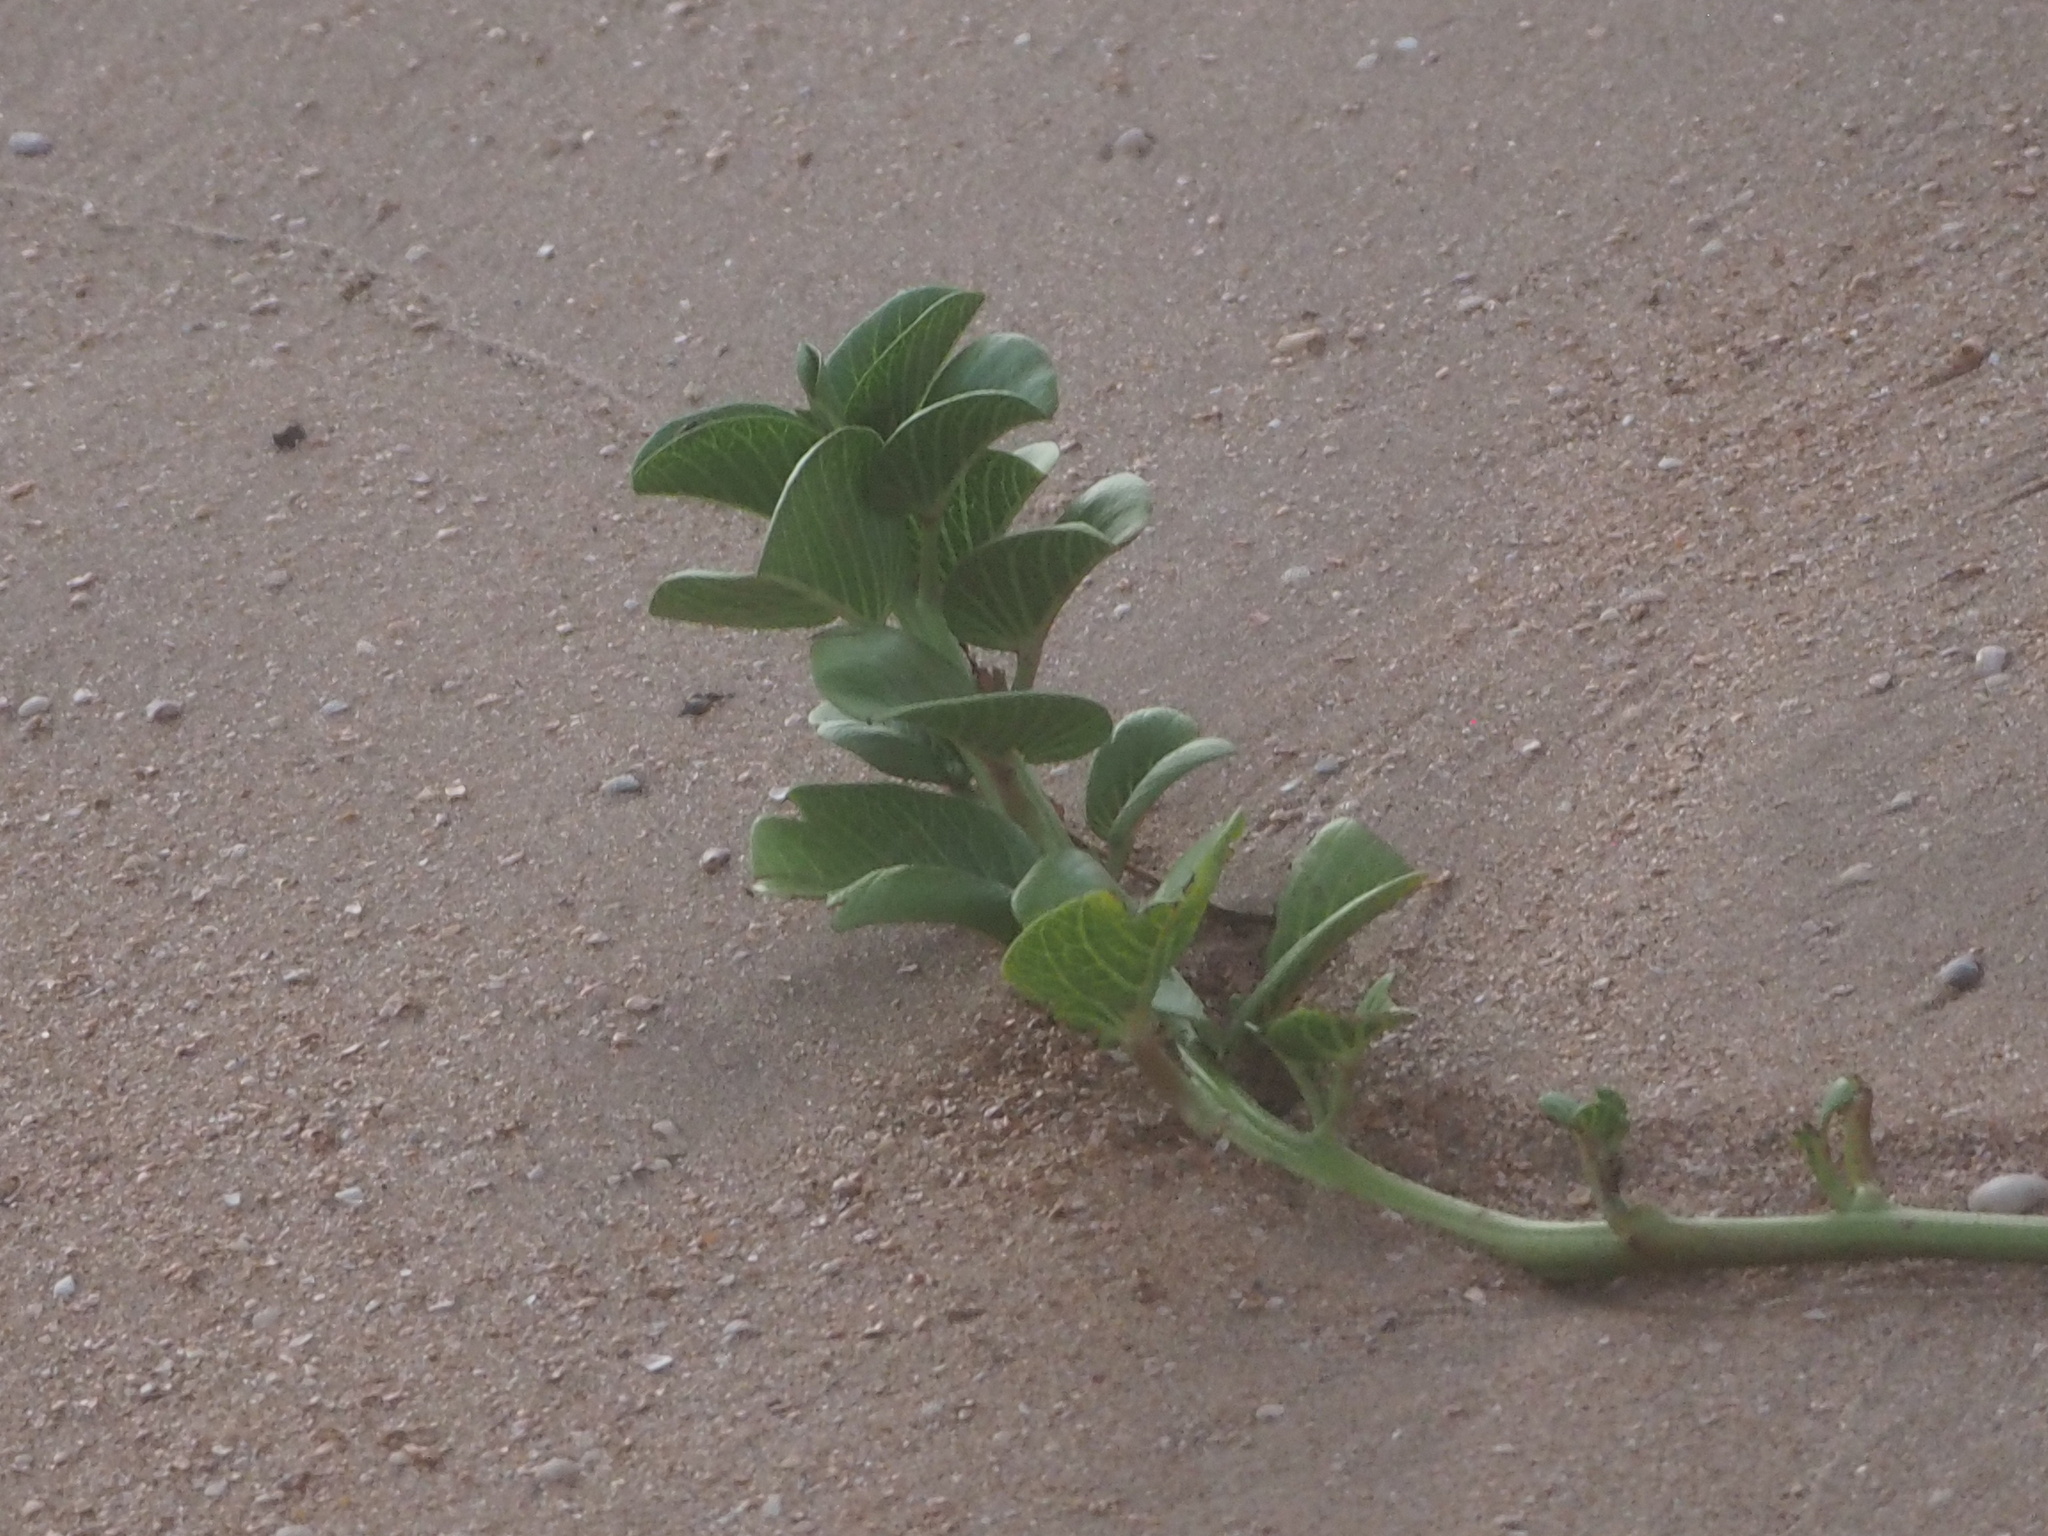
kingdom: Plantae
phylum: Tracheophyta
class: Magnoliopsida
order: Solanales
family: Convolvulaceae
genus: Ipomoea
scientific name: Ipomoea pes-caprae
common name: Beach morning glory
